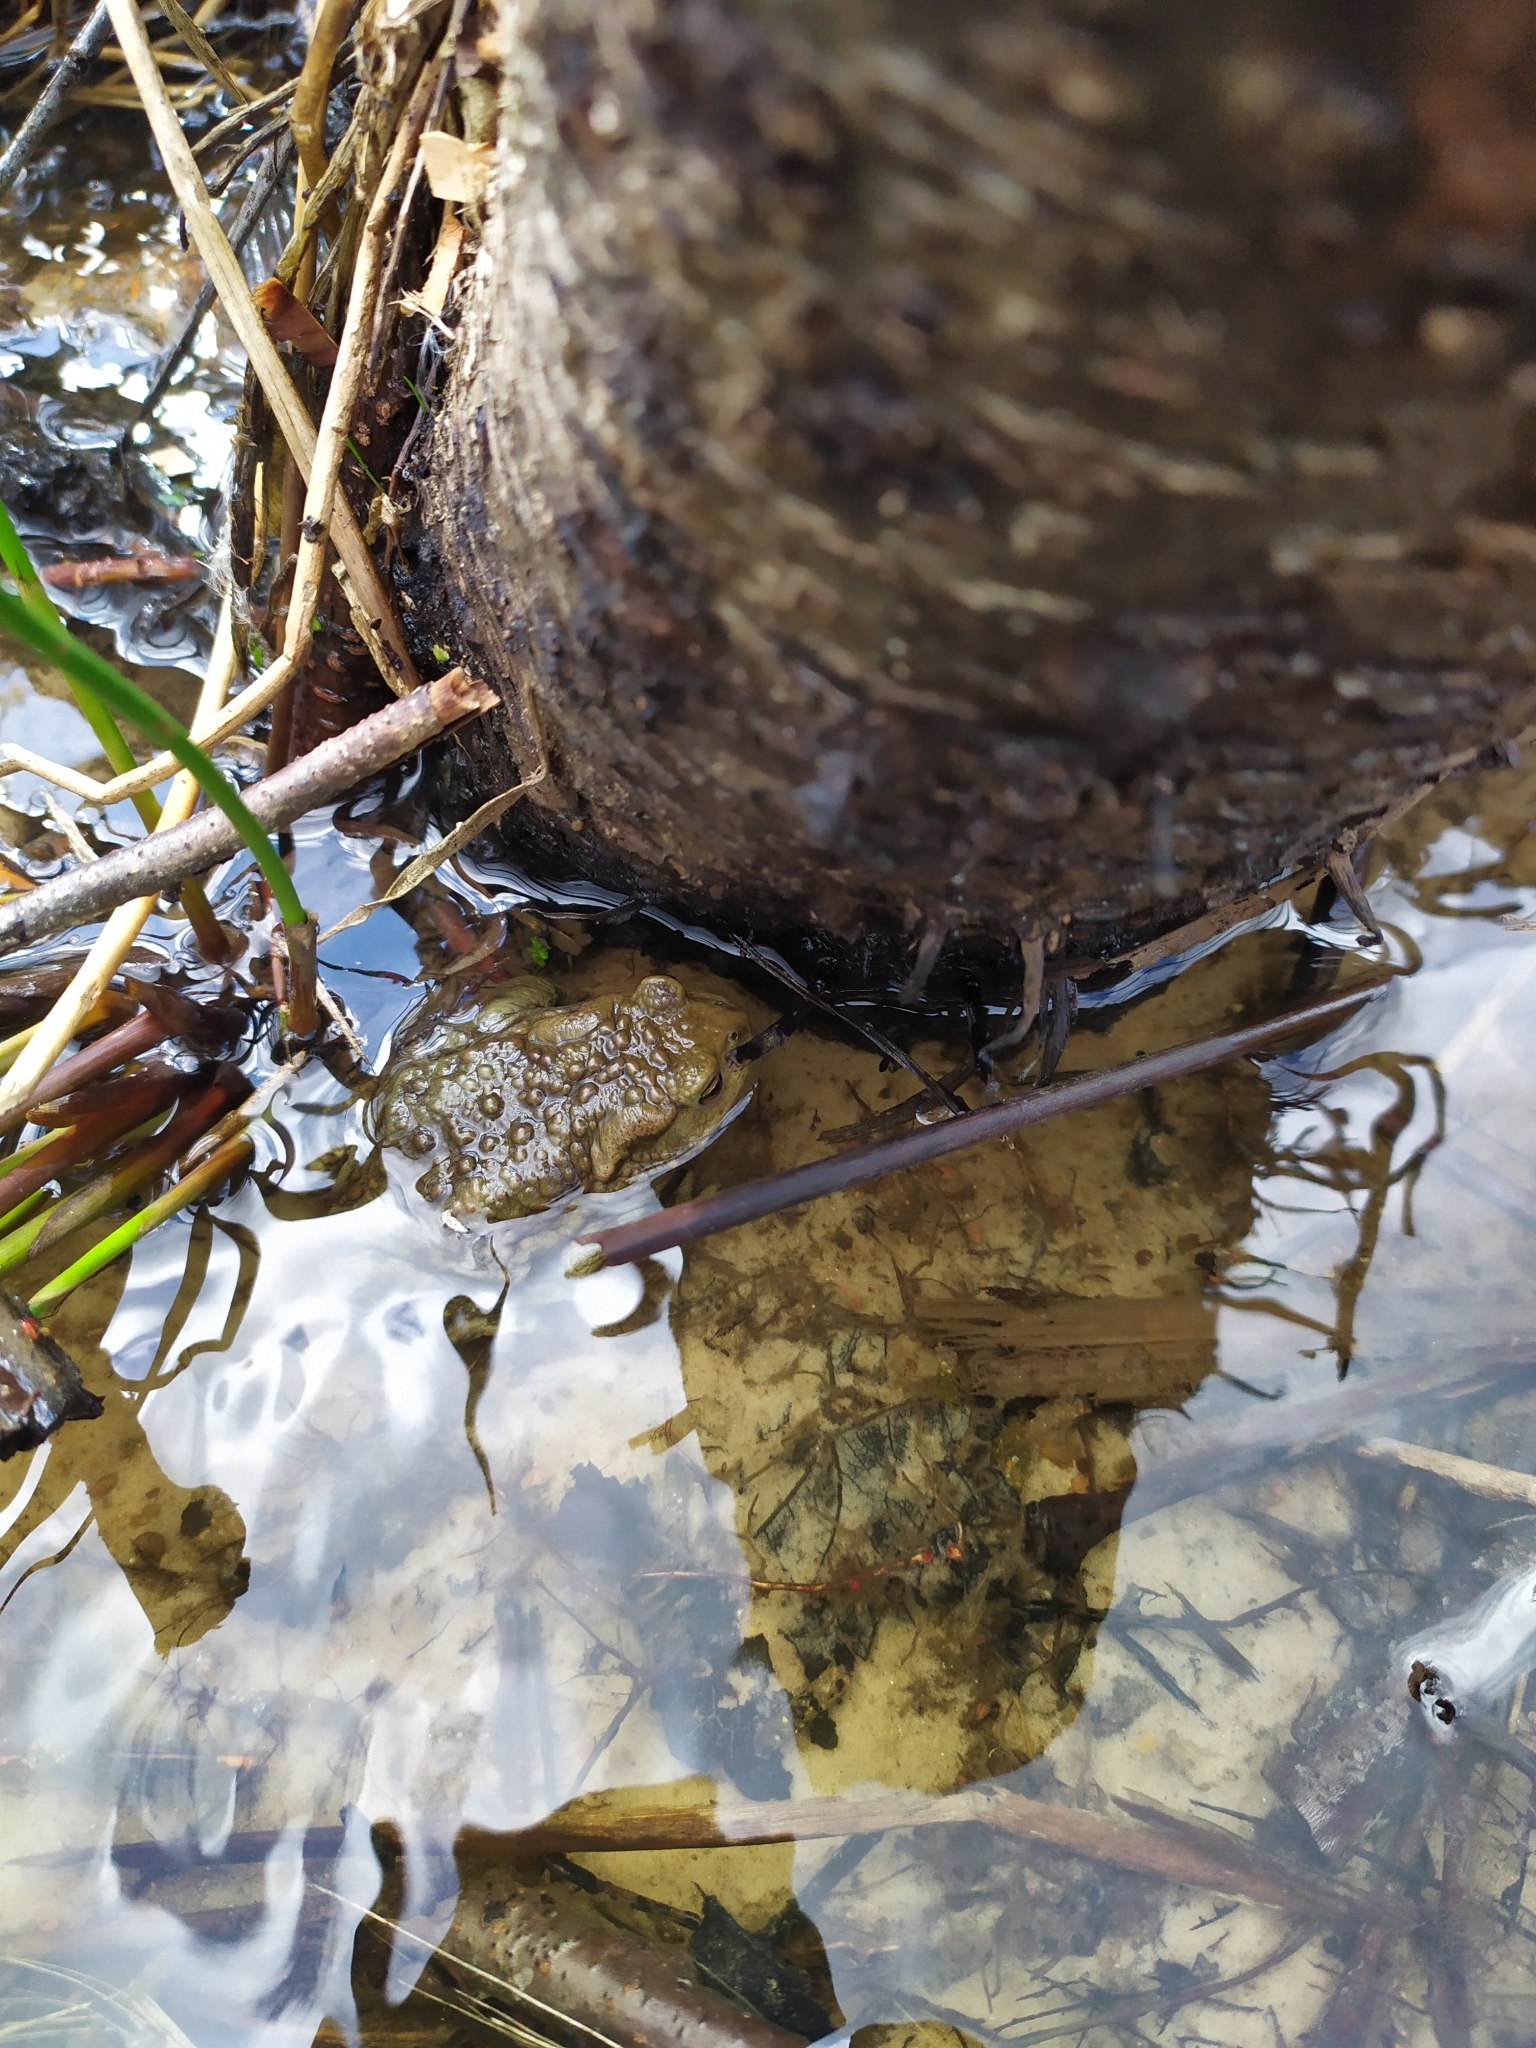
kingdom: Animalia
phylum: Chordata
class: Amphibia
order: Anura
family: Bufonidae
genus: Bufo
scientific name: Bufo bufo
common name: Common toad
